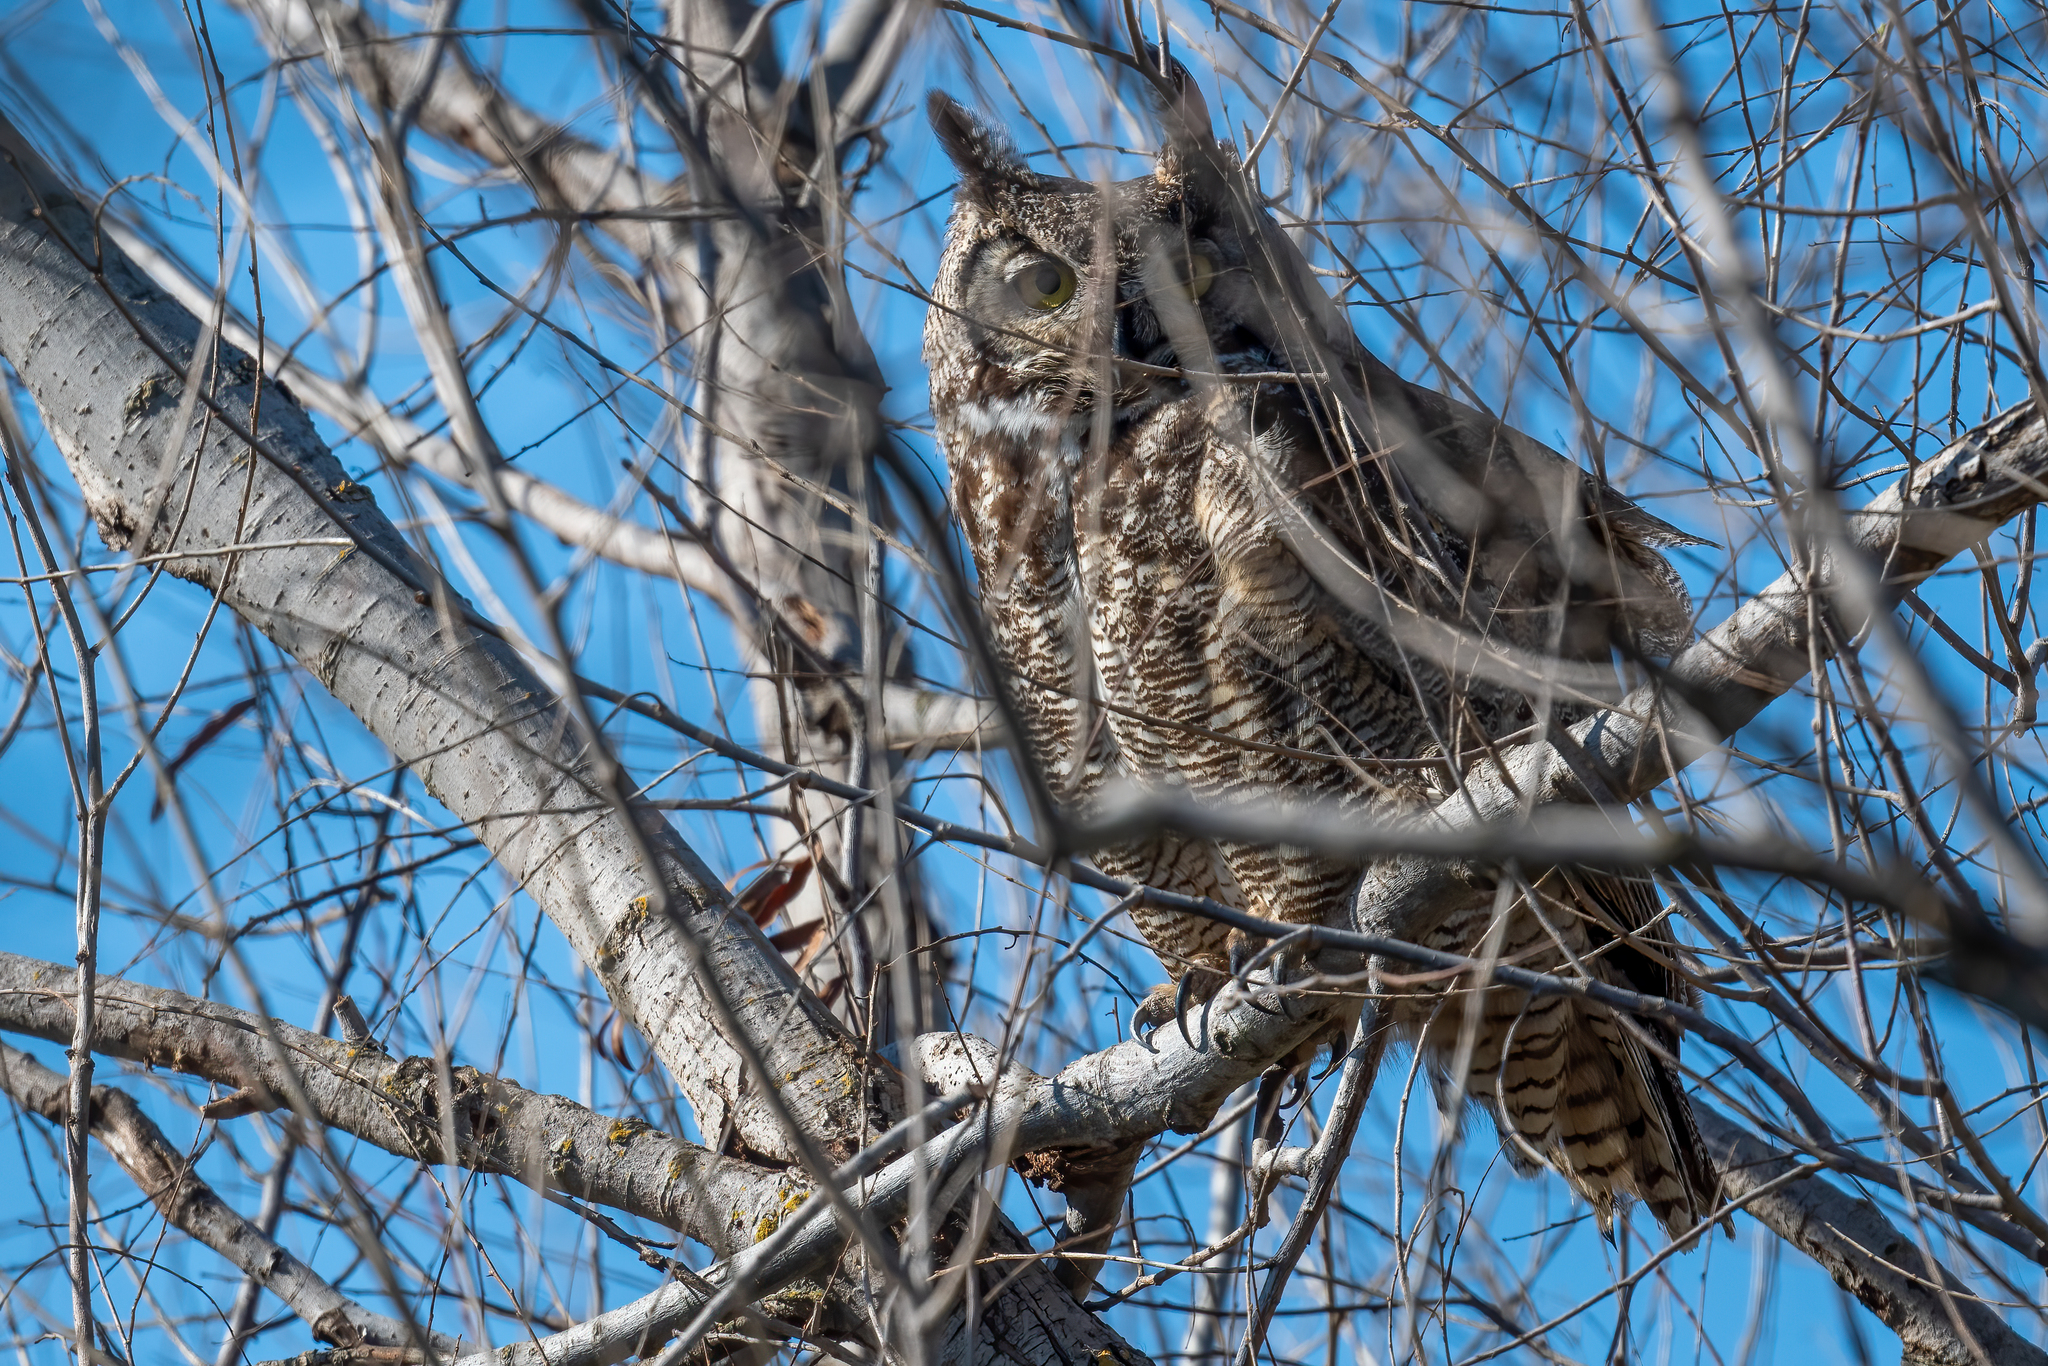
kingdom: Animalia
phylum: Chordata
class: Aves
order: Strigiformes
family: Strigidae
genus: Bubo
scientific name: Bubo virginianus
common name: Great horned owl
